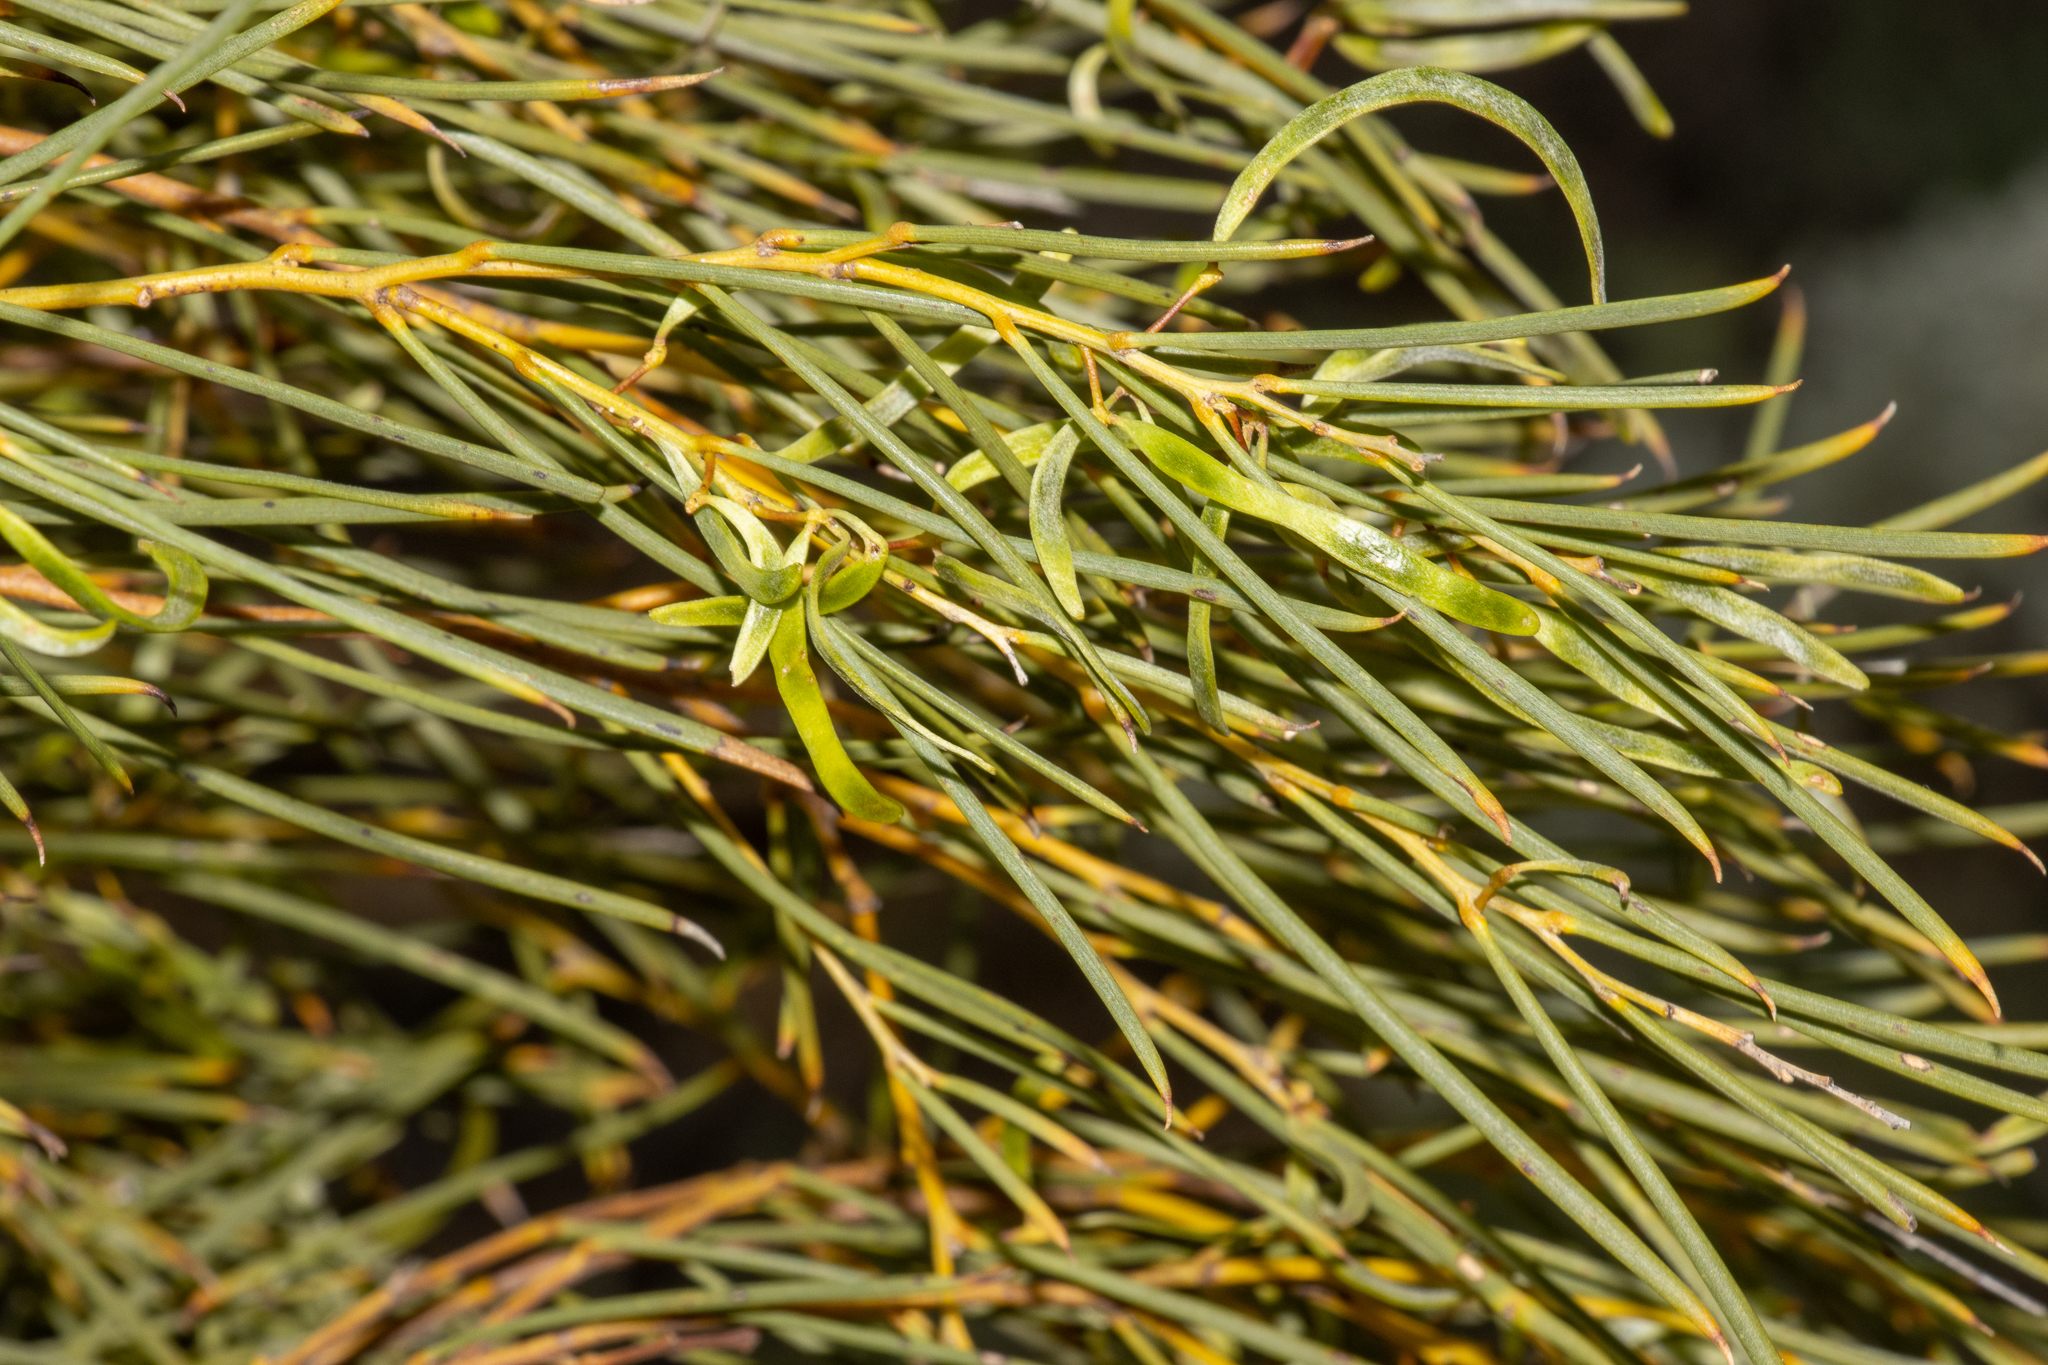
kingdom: Plantae
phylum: Tracheophyta
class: Magnoliopsida
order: Fabales
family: Fabaceae
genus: Acacia
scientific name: Acacia papyrocarpa
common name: Western myall
